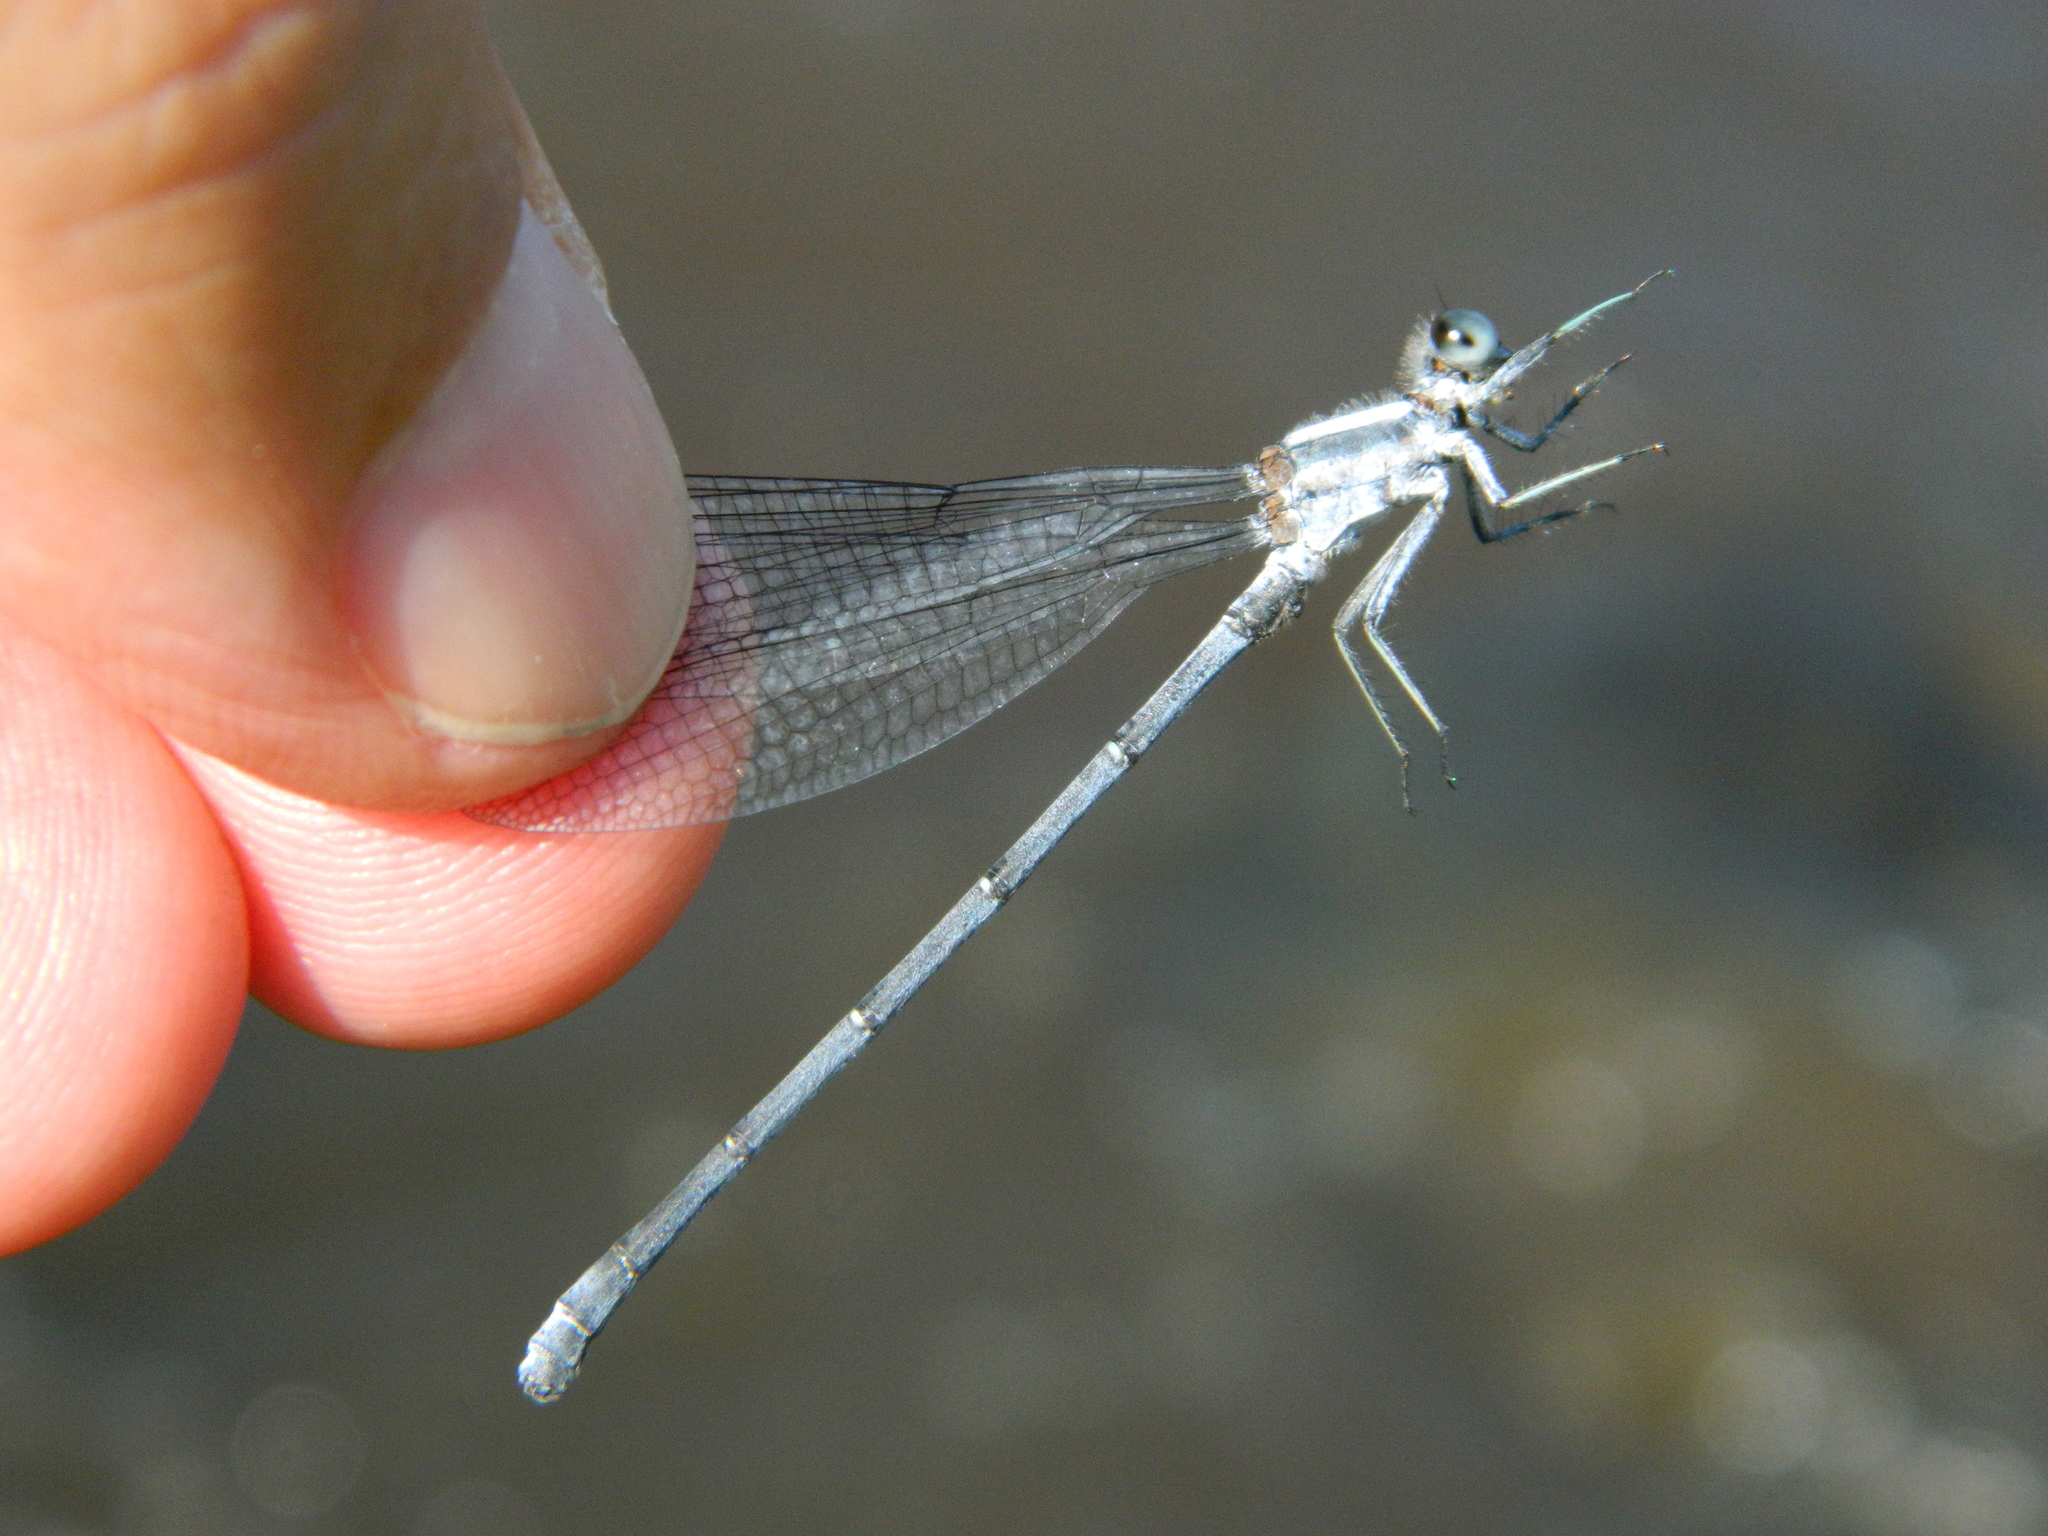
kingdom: Animalia
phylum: Arthropoda
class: Insecta
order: Odonata
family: Coenagrionidae
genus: Argia
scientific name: Argia moesta
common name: Powdered dancer
